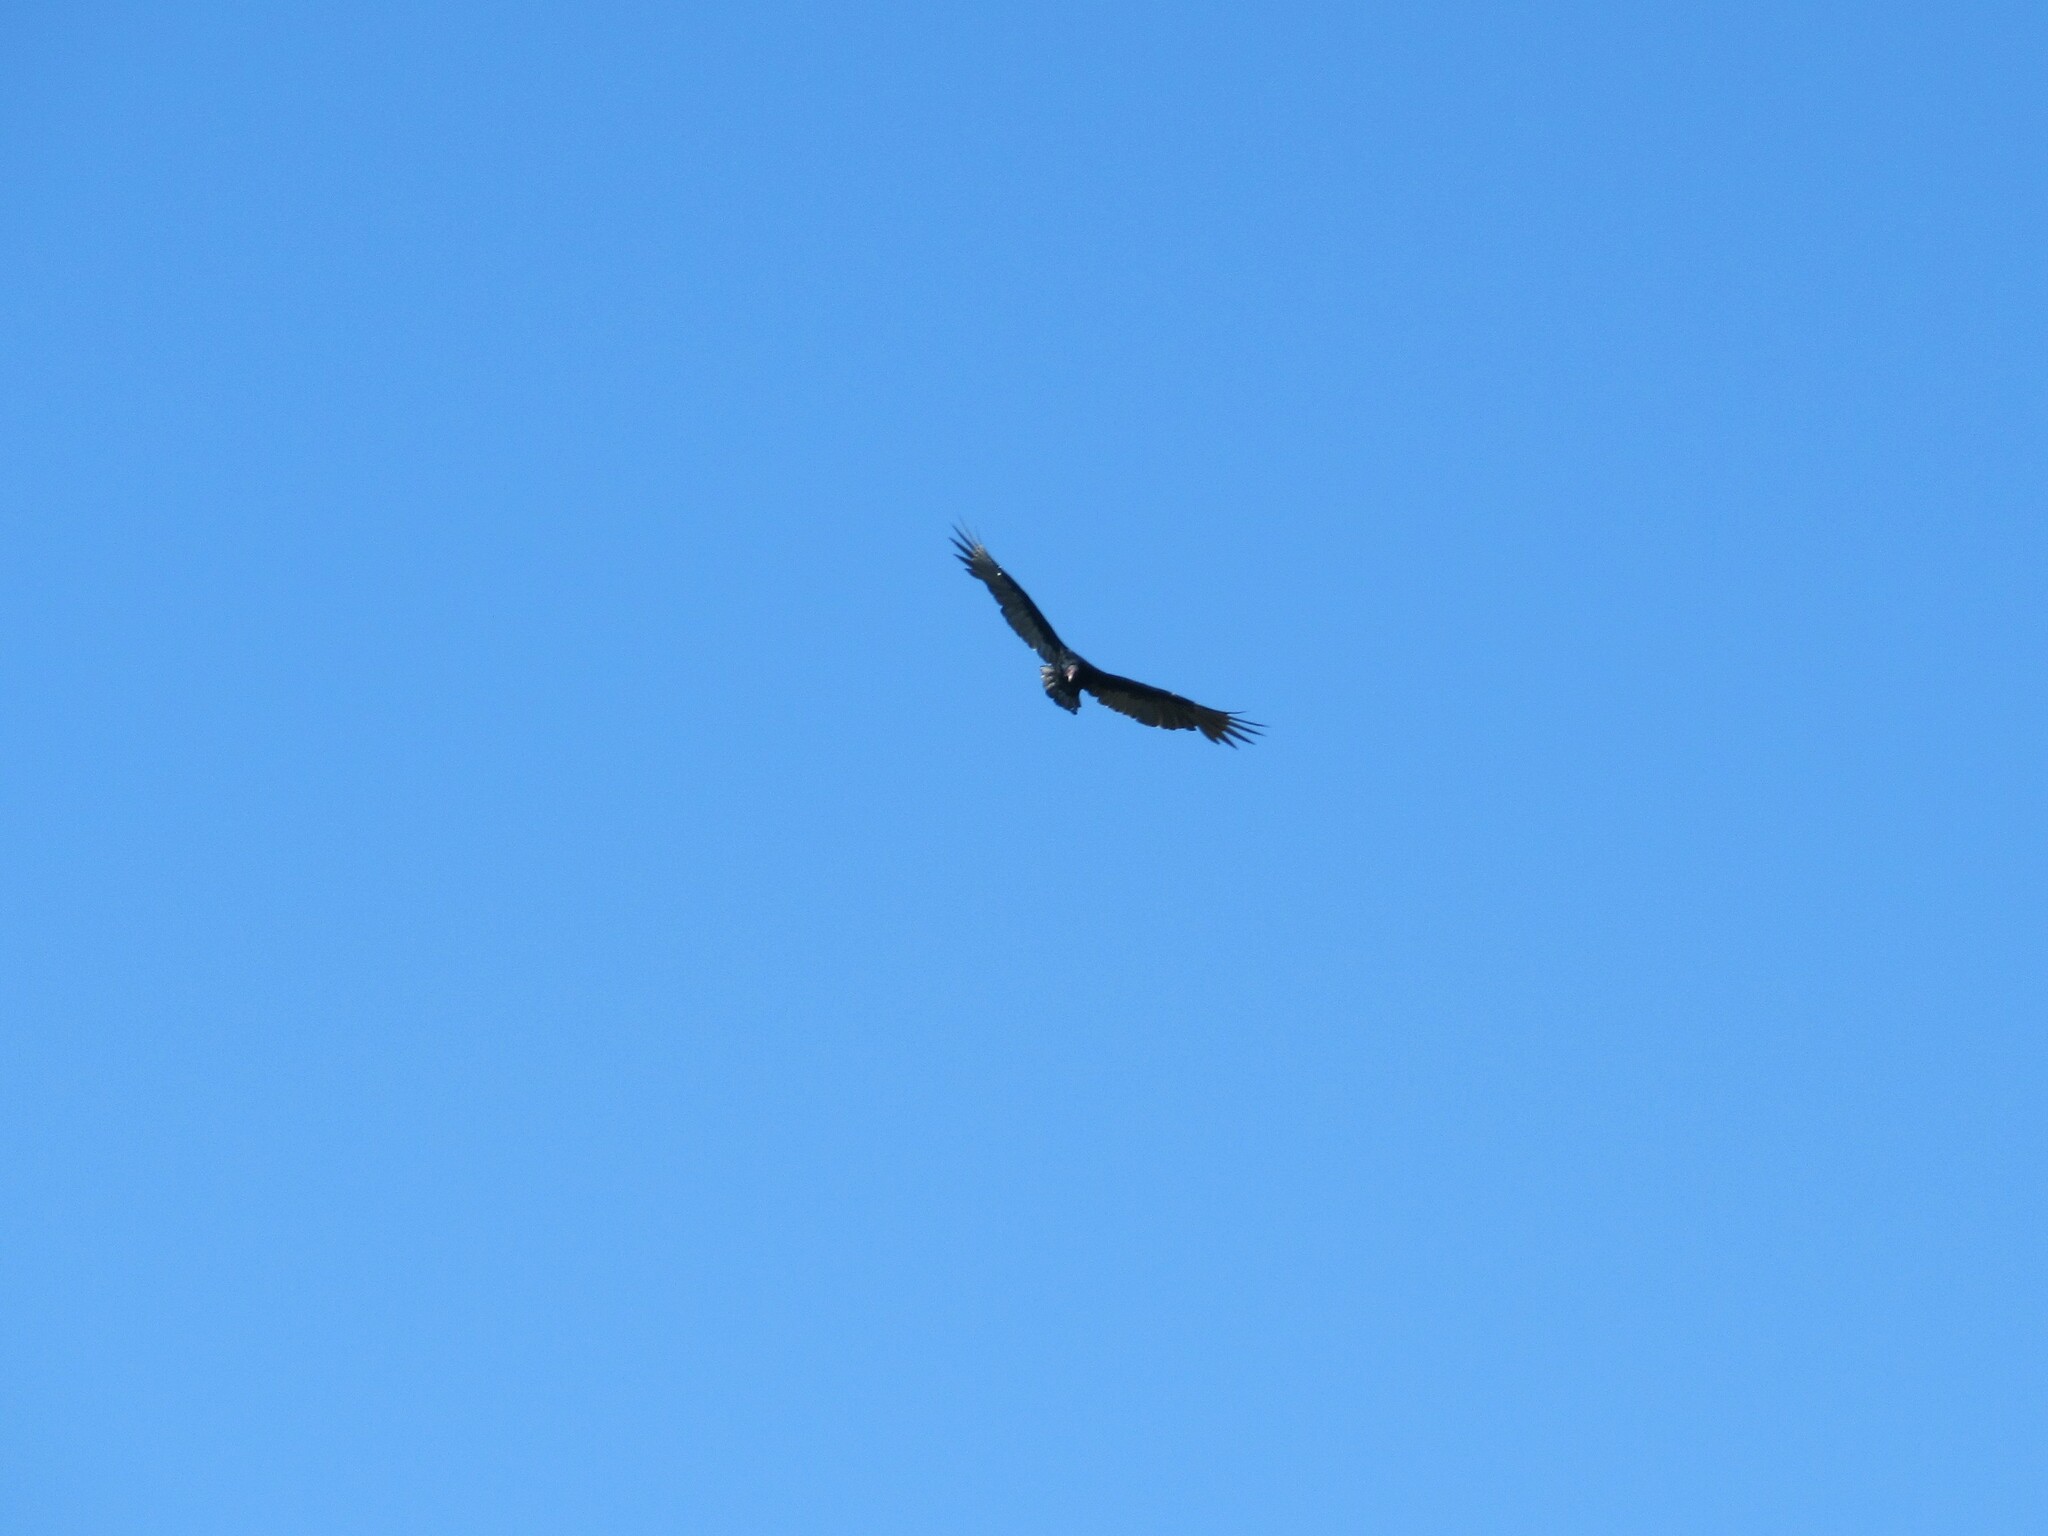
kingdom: Animalia
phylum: Chordata
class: Aves
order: Accipitriformes
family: Cathartidae
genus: Cathartes
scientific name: Cathartes aura
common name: Turkey vulture
